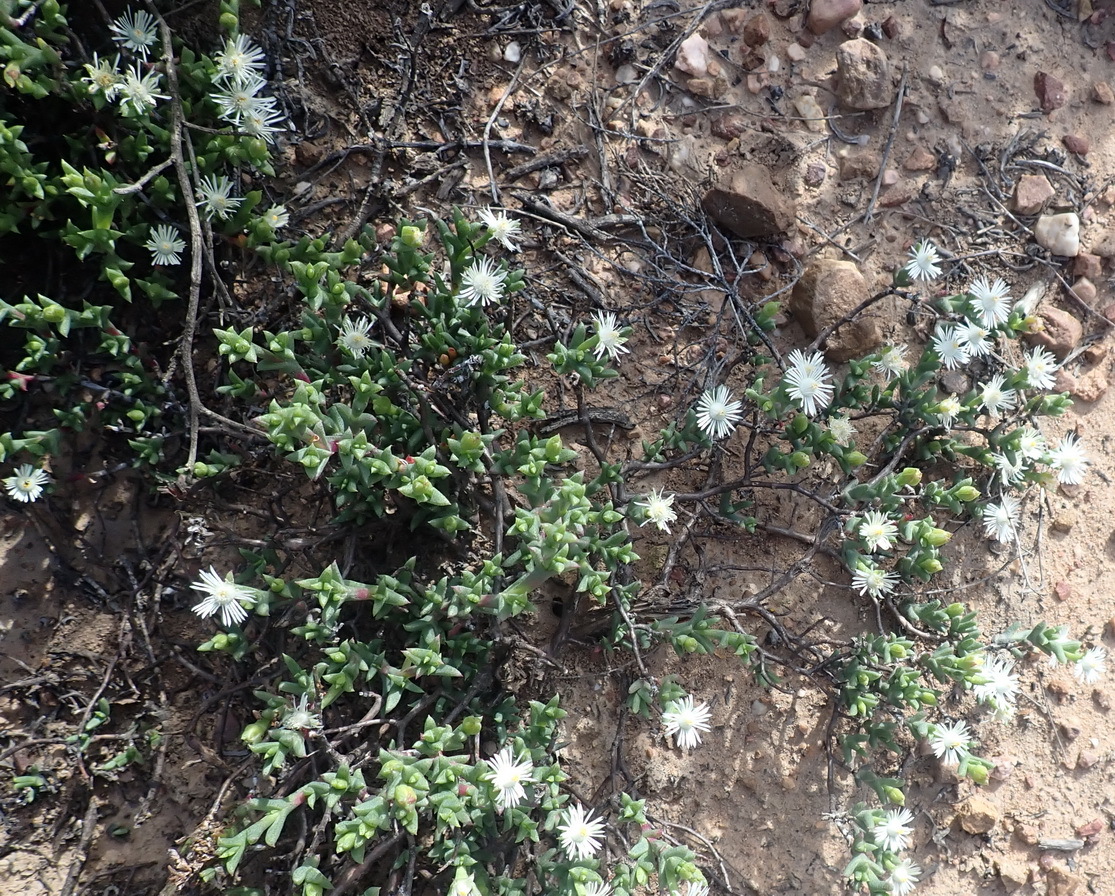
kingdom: Plantae
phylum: Tracheophyta
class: Magnoliopsida
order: Caryophyllales
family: Aizoaceae
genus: Ruschia
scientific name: Ruschia multiflora
